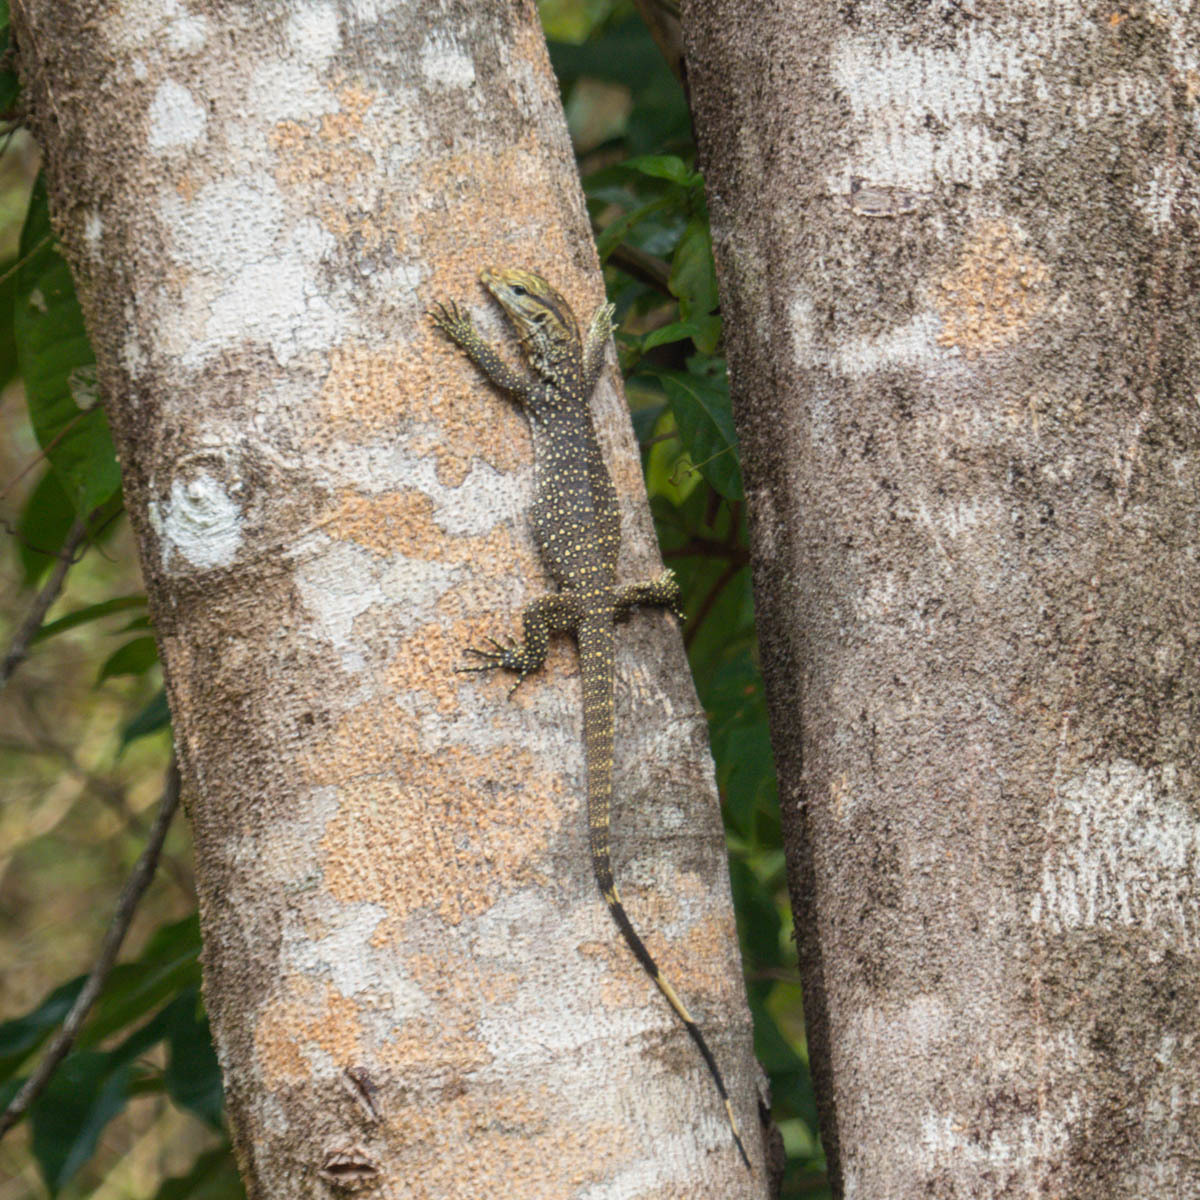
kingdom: Animalia
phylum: Chordata
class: Squamata
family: Varanidae
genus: Varanus
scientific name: Varanus nebulosus
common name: Clouded monitor
